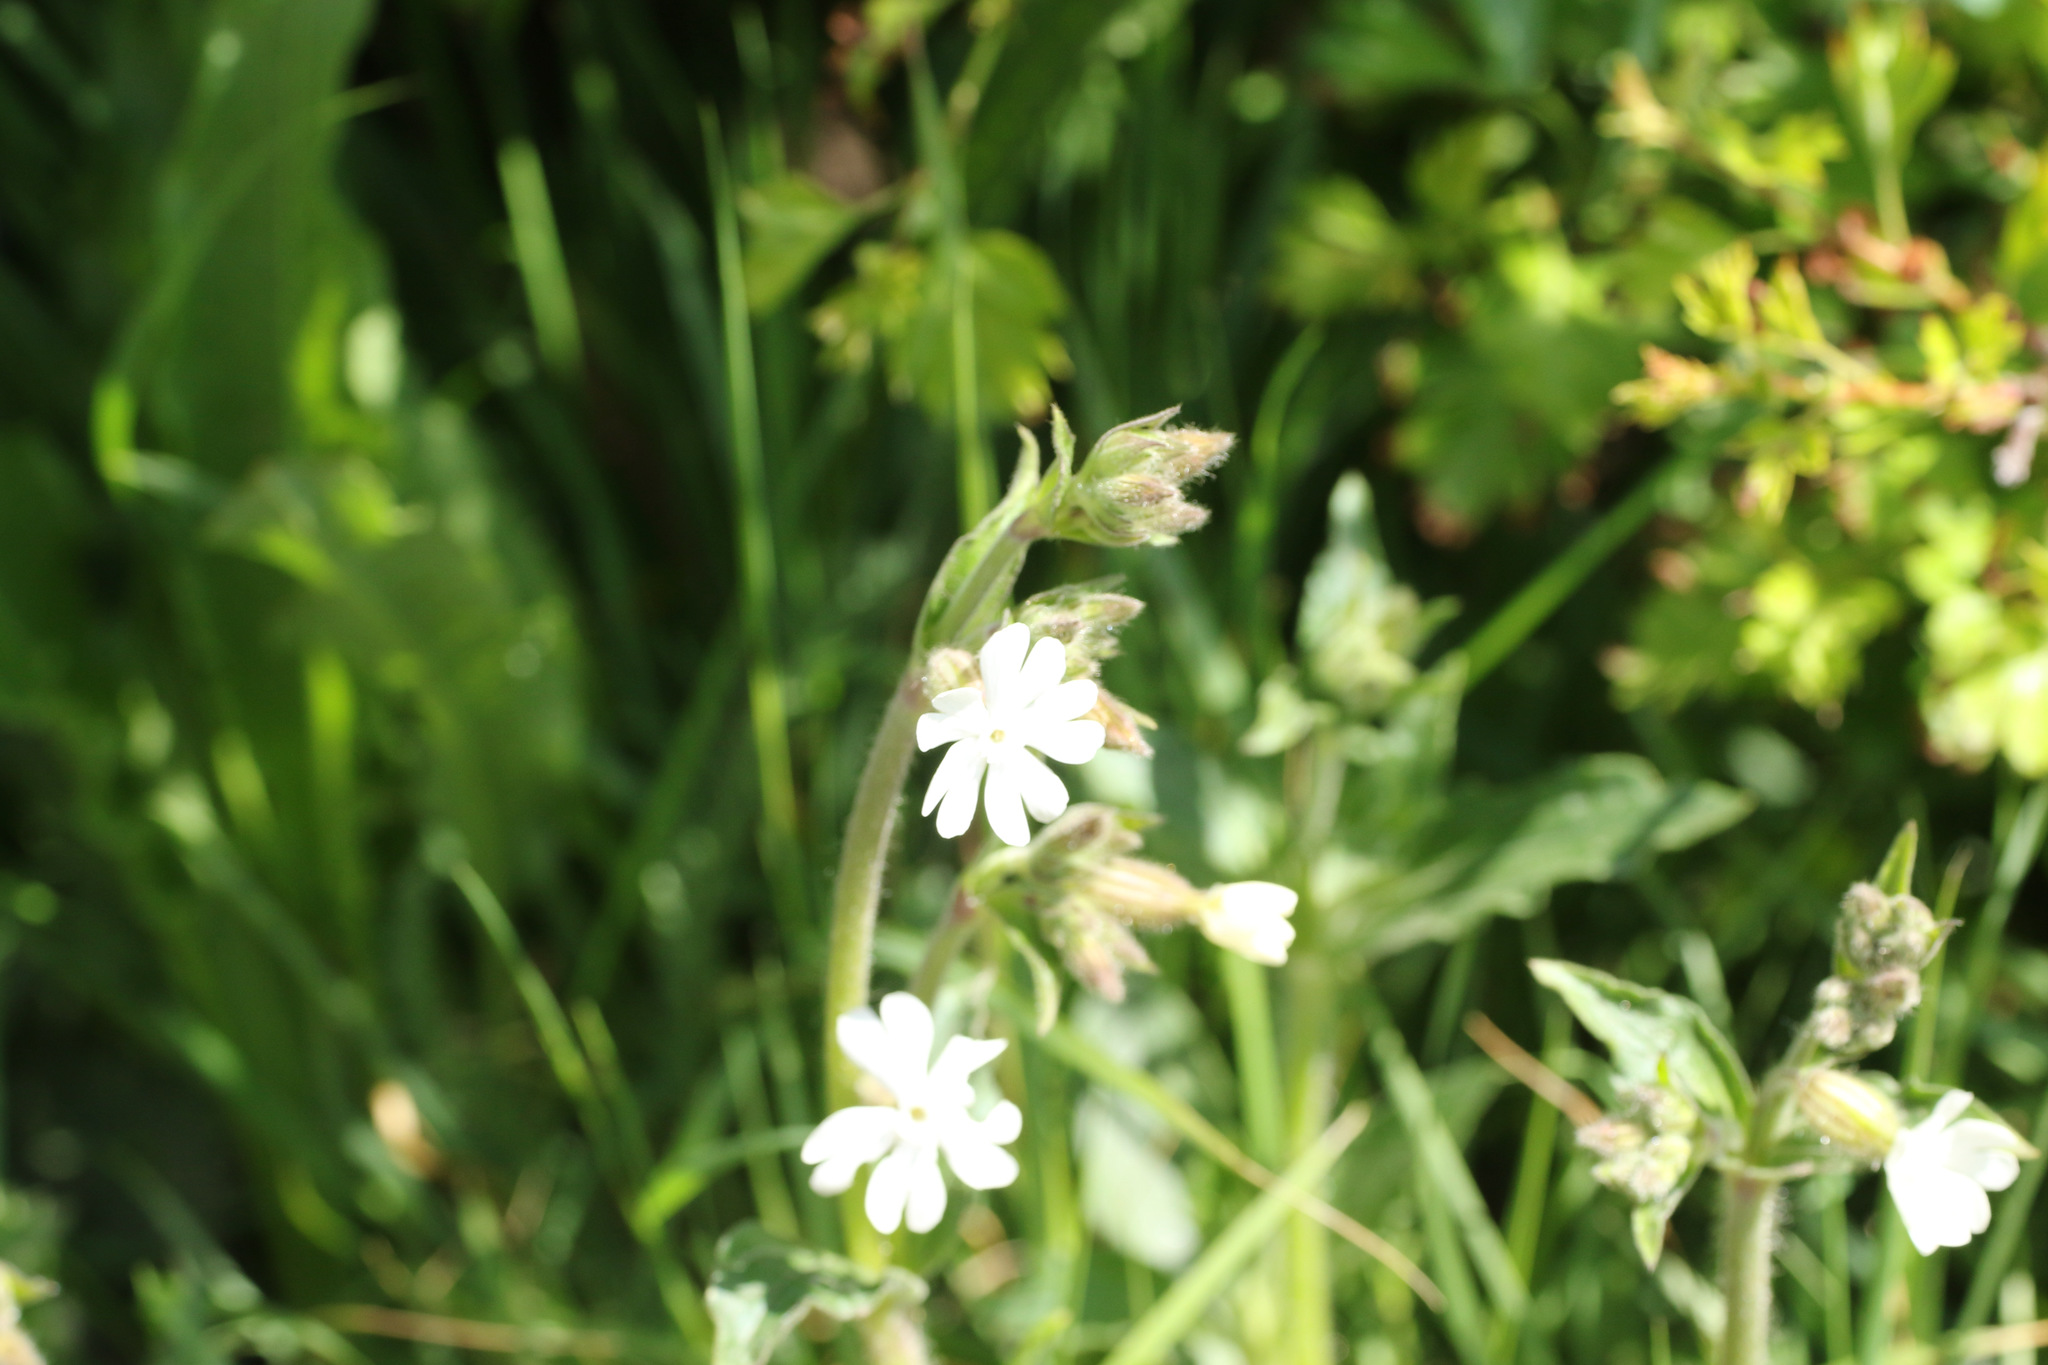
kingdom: Plantae
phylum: Tracheophyta
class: Magnoliopsida
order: Caryophyllales
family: Caryophyllaceae
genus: Silene
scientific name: Silene latifolia
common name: White campion
